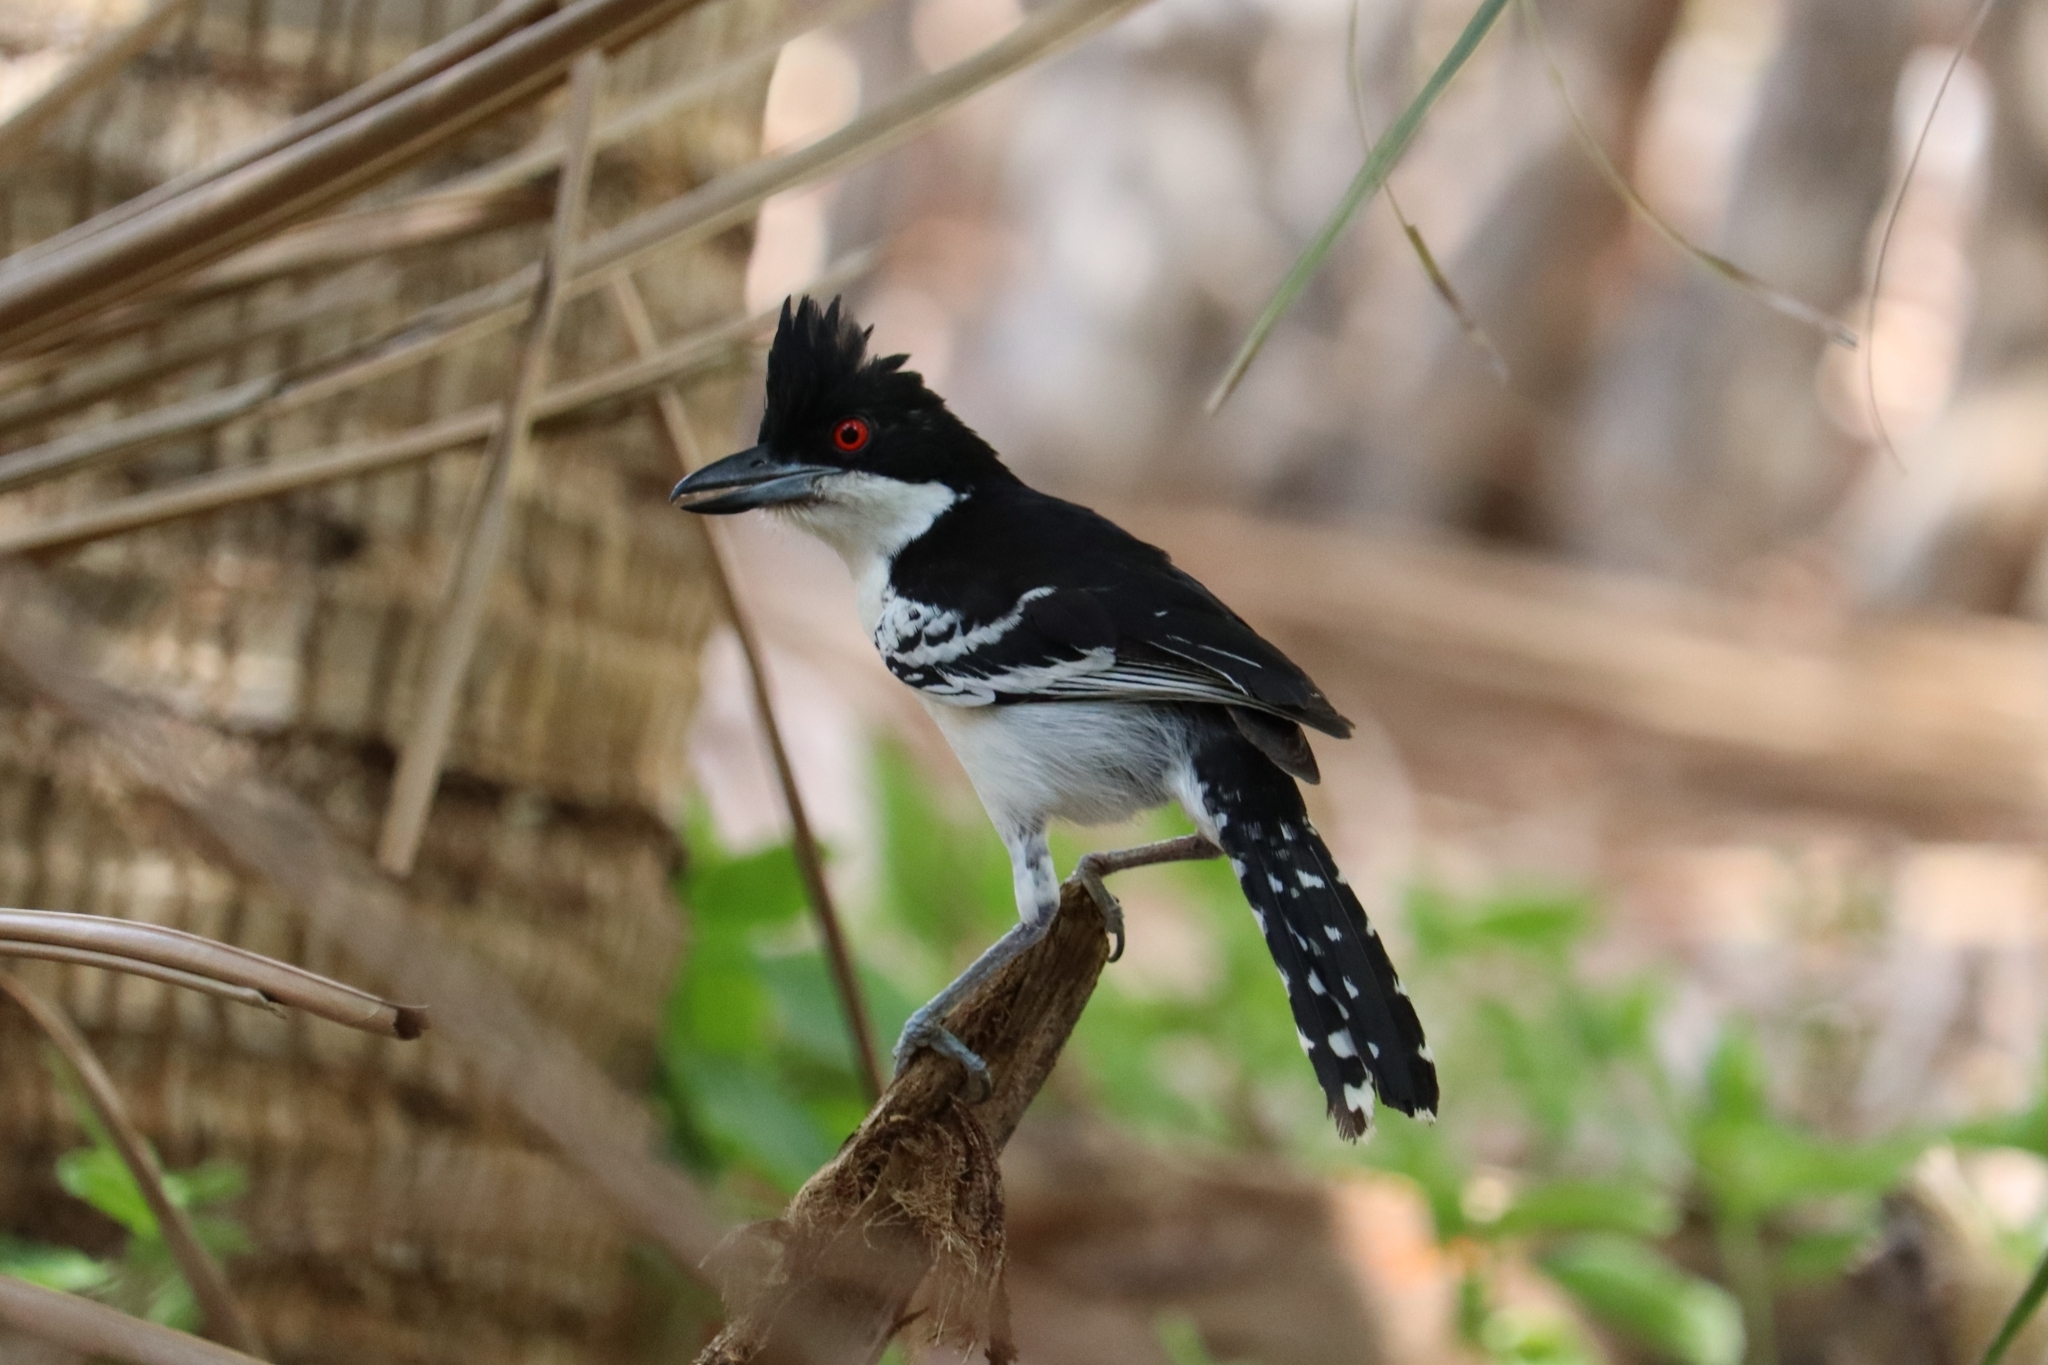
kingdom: Animalia
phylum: Chordata
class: Aves
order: Passeriformes
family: Thamnophilidae
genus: Taraba
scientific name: Taraba major
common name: Great antshrike
